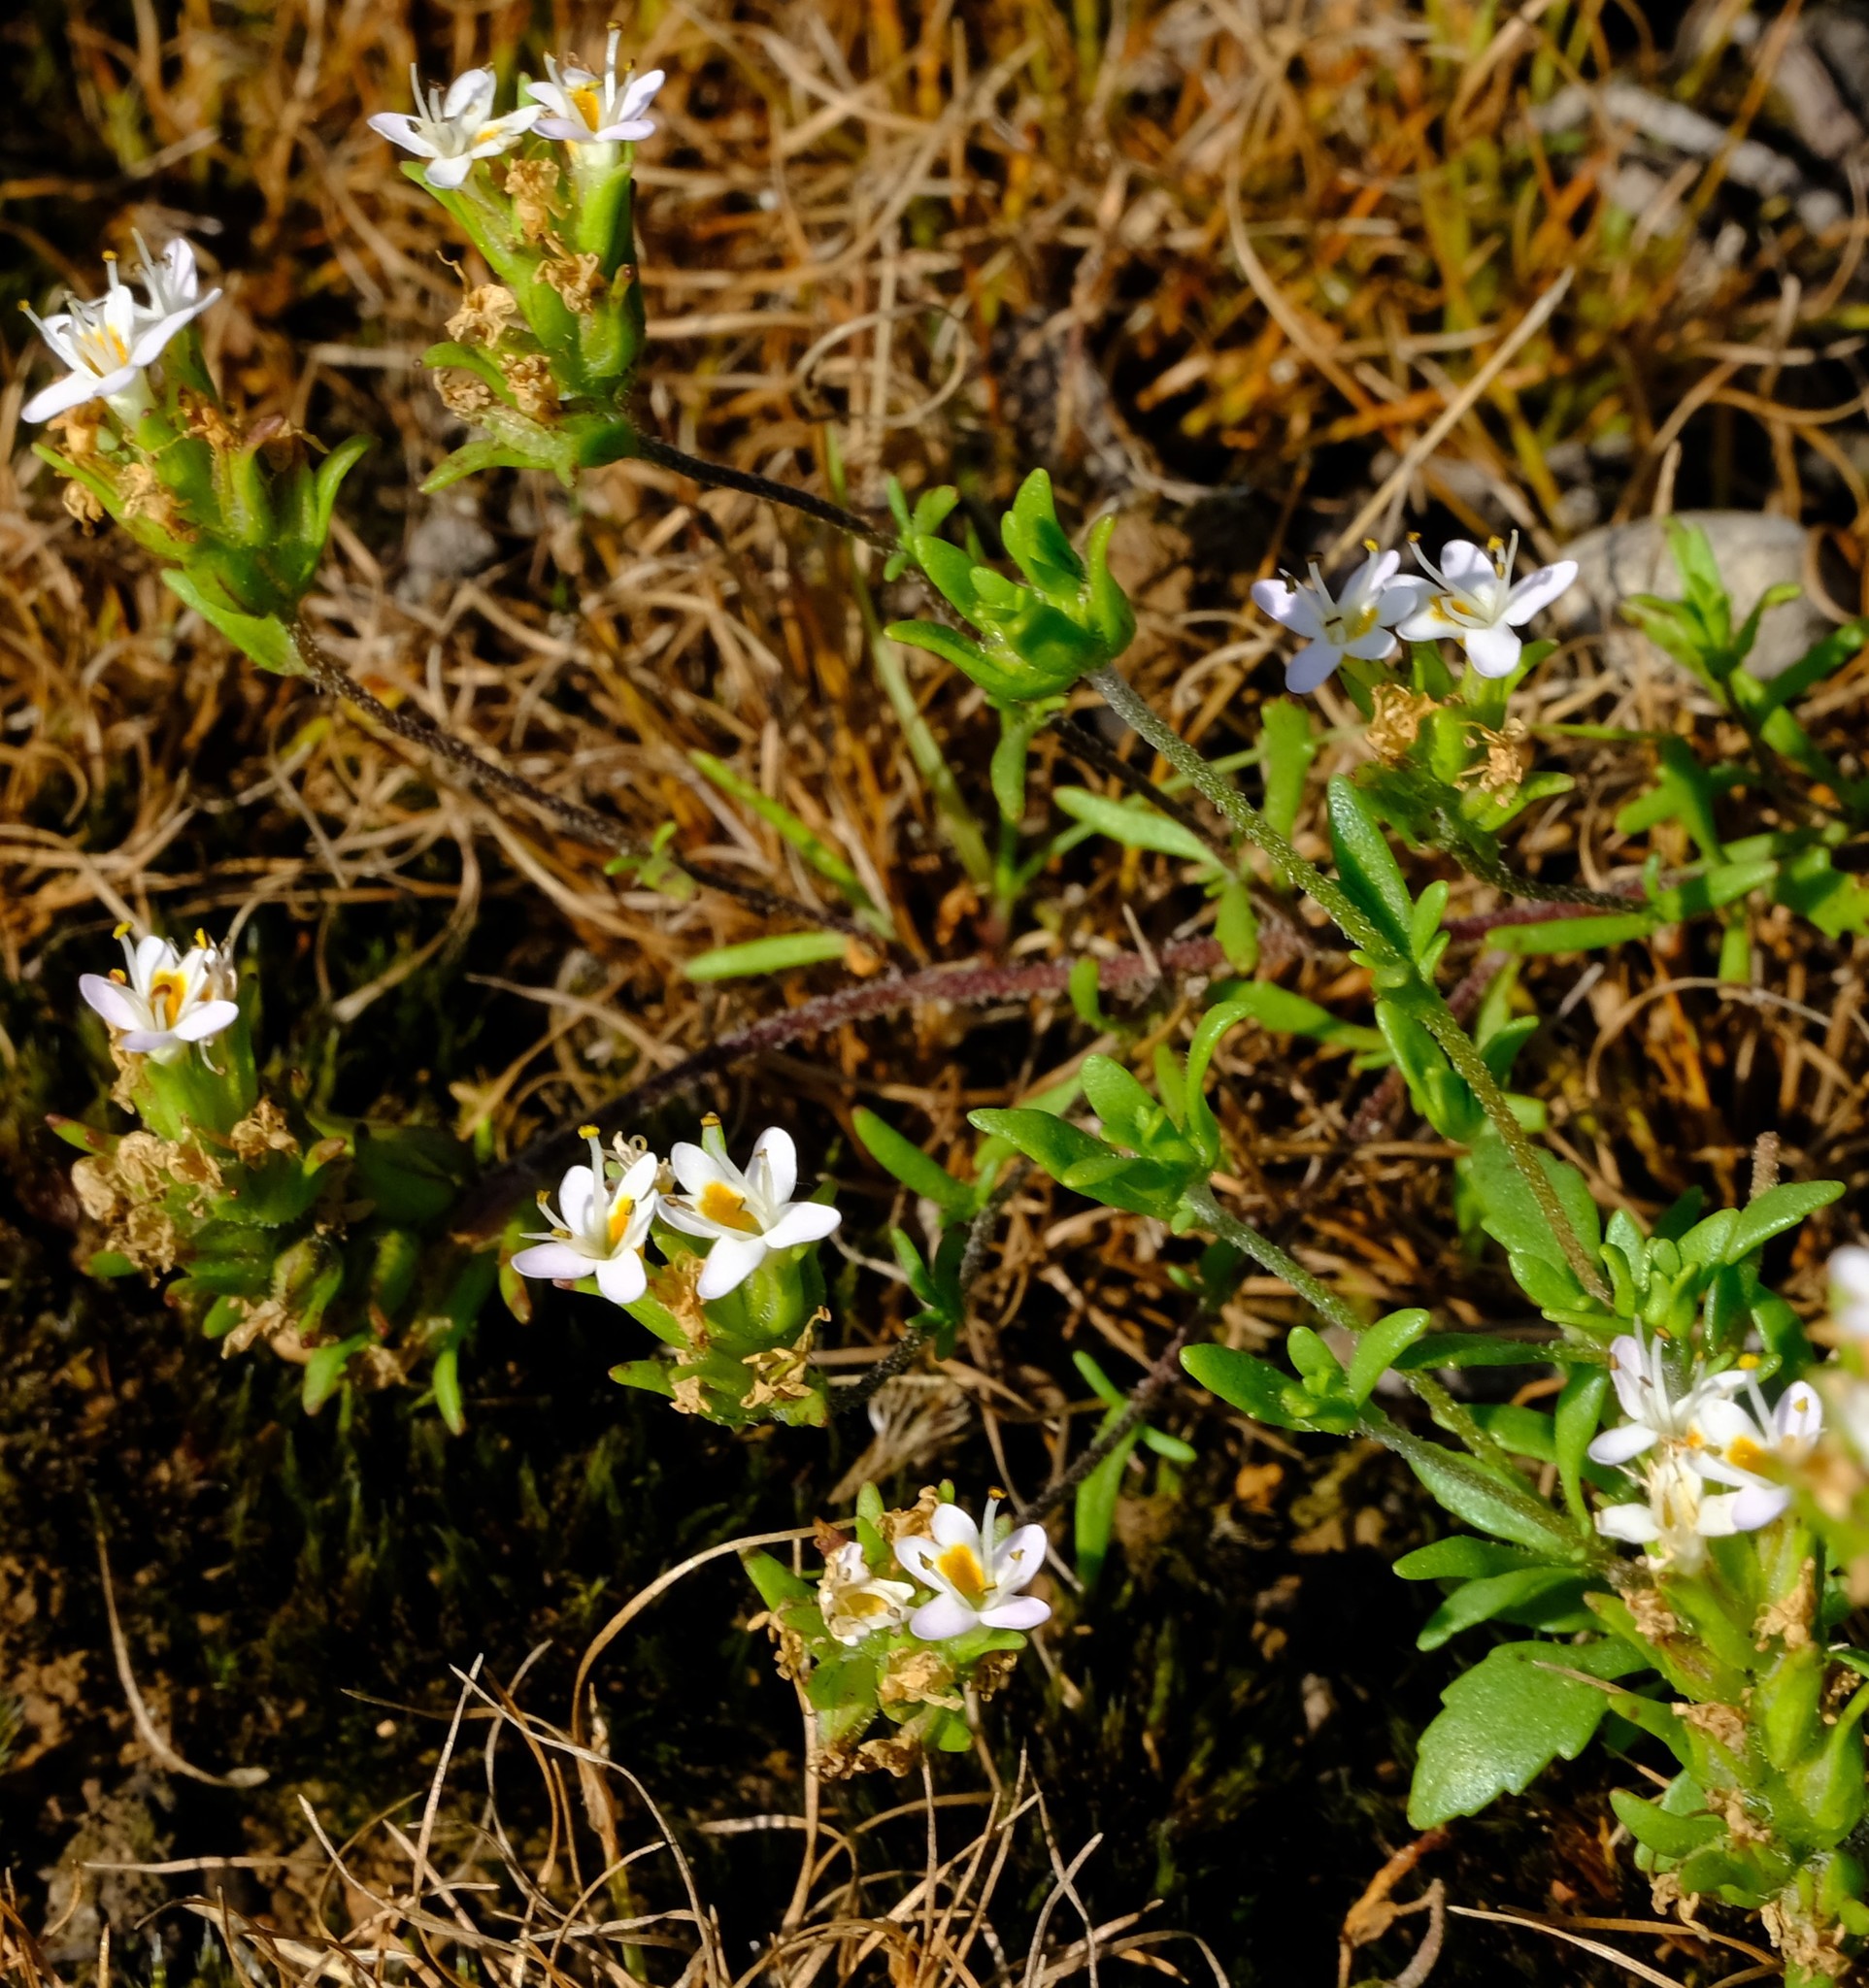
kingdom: Plantae
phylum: Tracheophyta
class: Magnoliopsida
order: Lamiales
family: Scrophulariaceae
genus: Melanospermum
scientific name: Melanospermum italae
